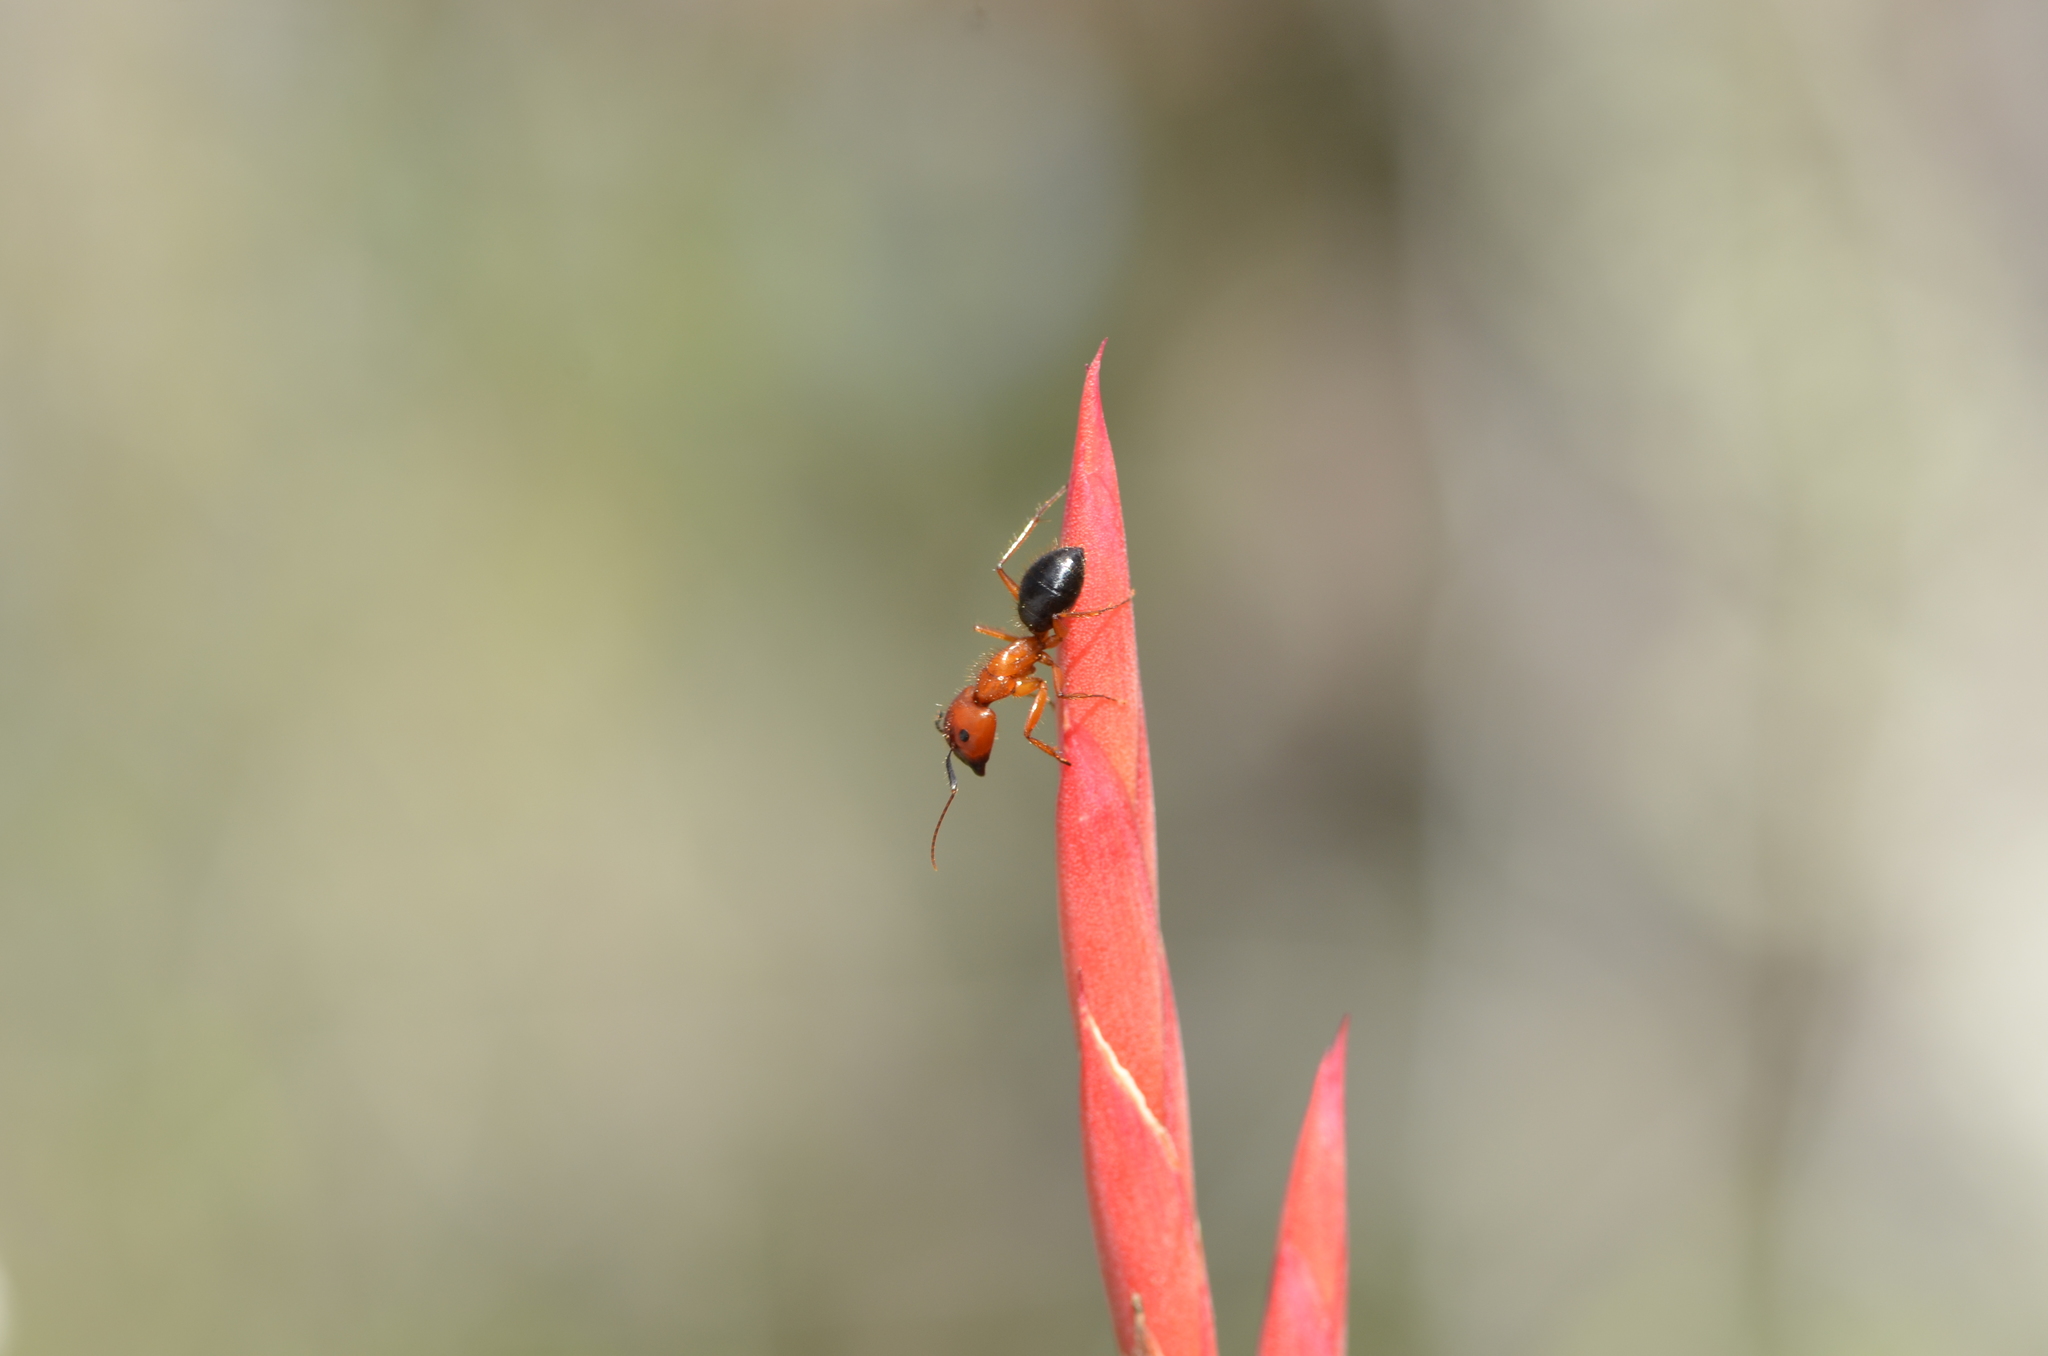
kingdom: Animalia
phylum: Arthropoda
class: Insecta
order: Hymenoptera
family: Formicidae
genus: Camponotus
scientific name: Camponotus floridanus
